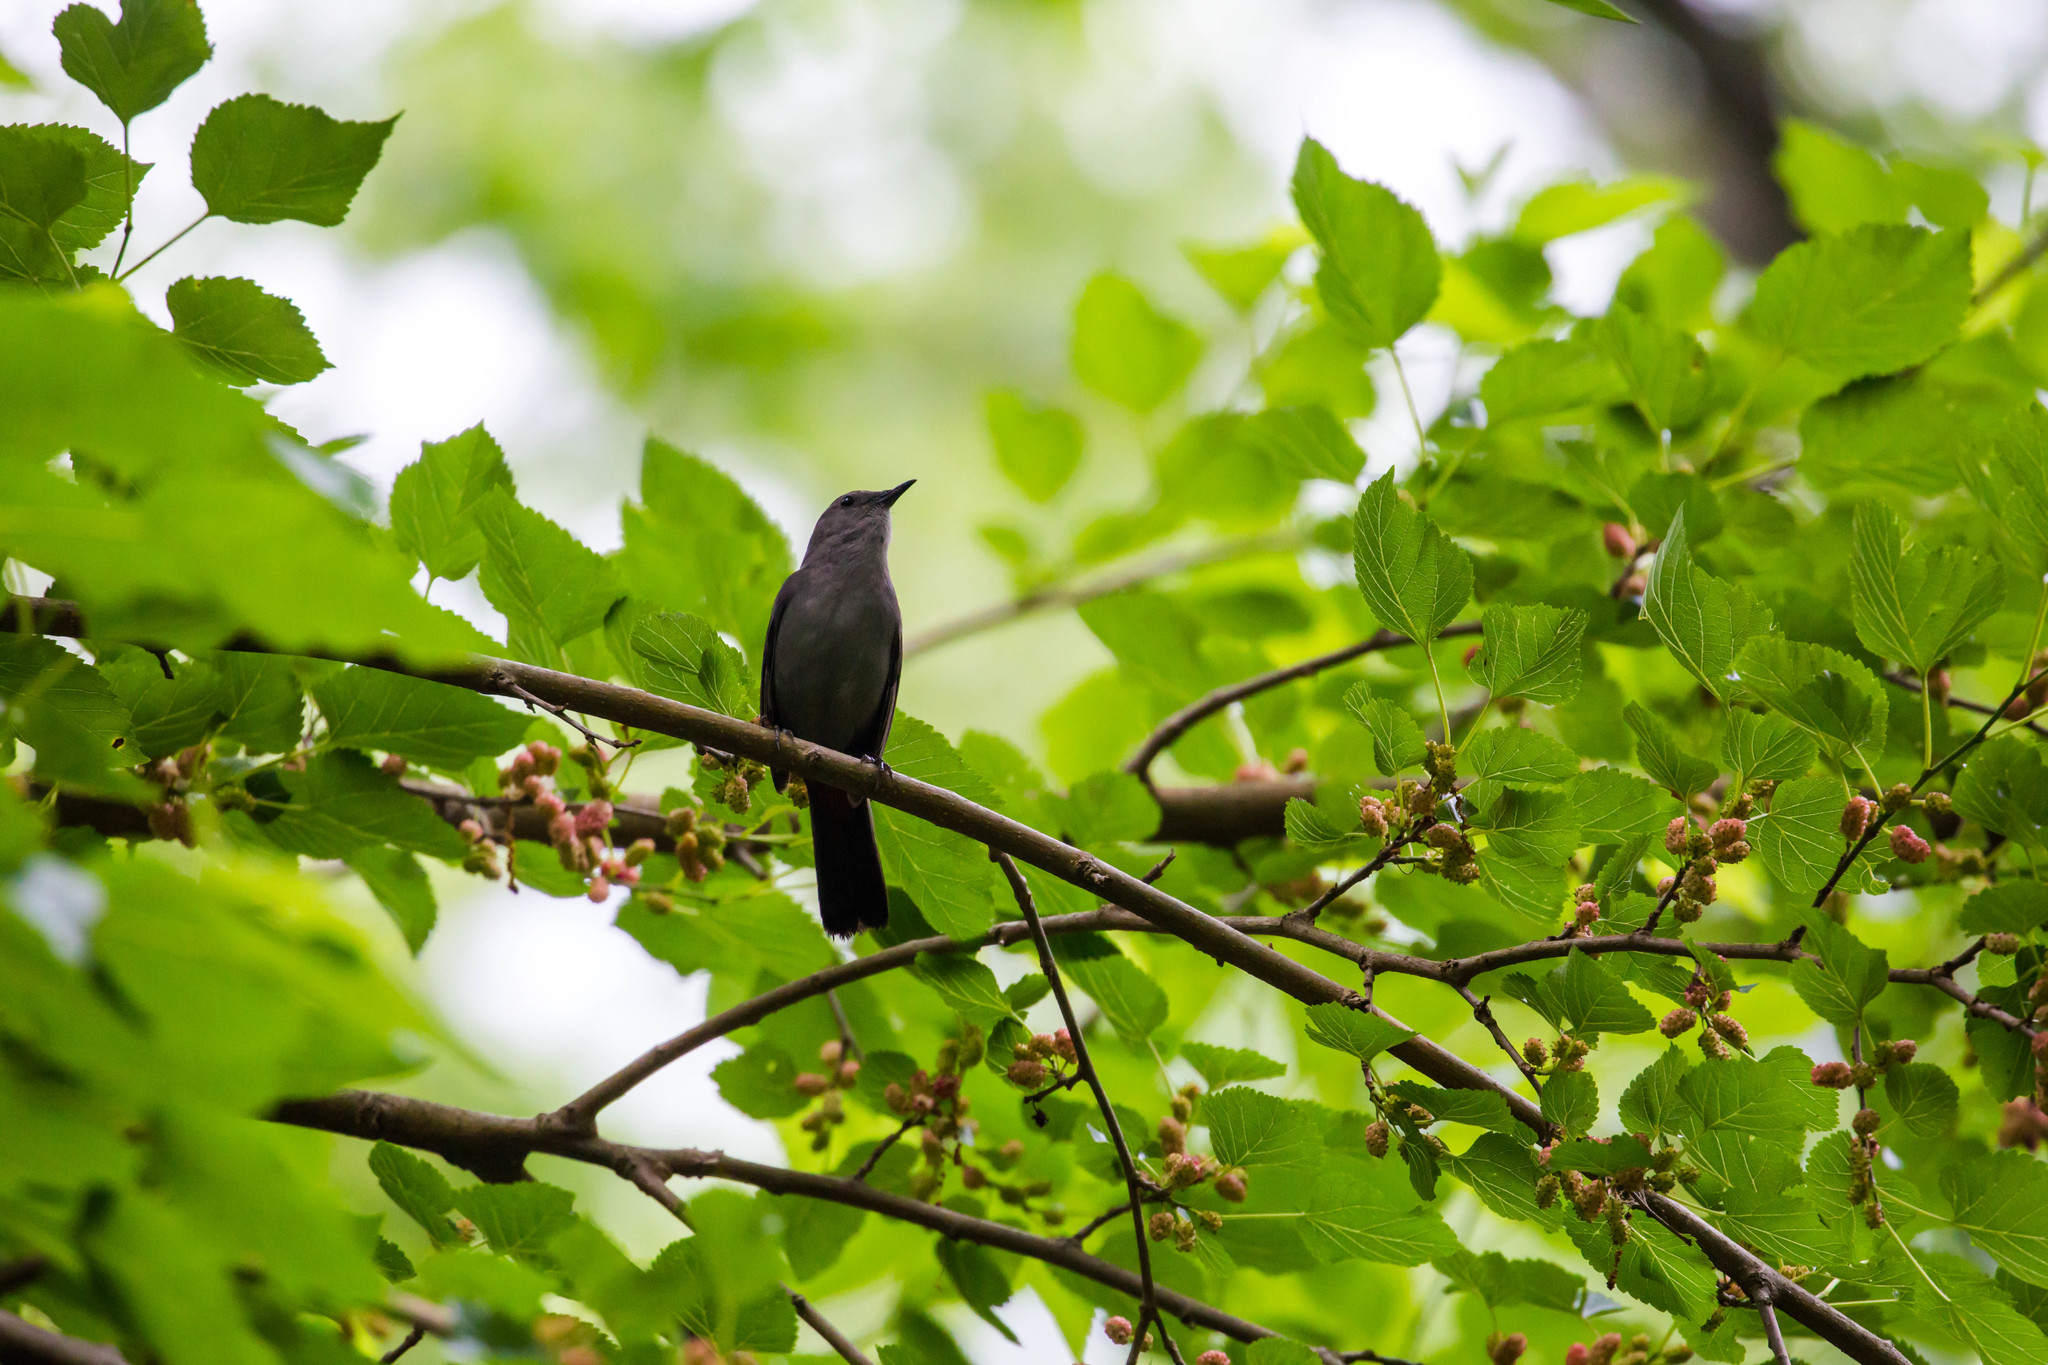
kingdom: Animalia
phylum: Chordata
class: Aves
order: Passeriformes
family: Mimidae
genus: Dumetella
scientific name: Dumetella carolinensis
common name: Gray catbird
